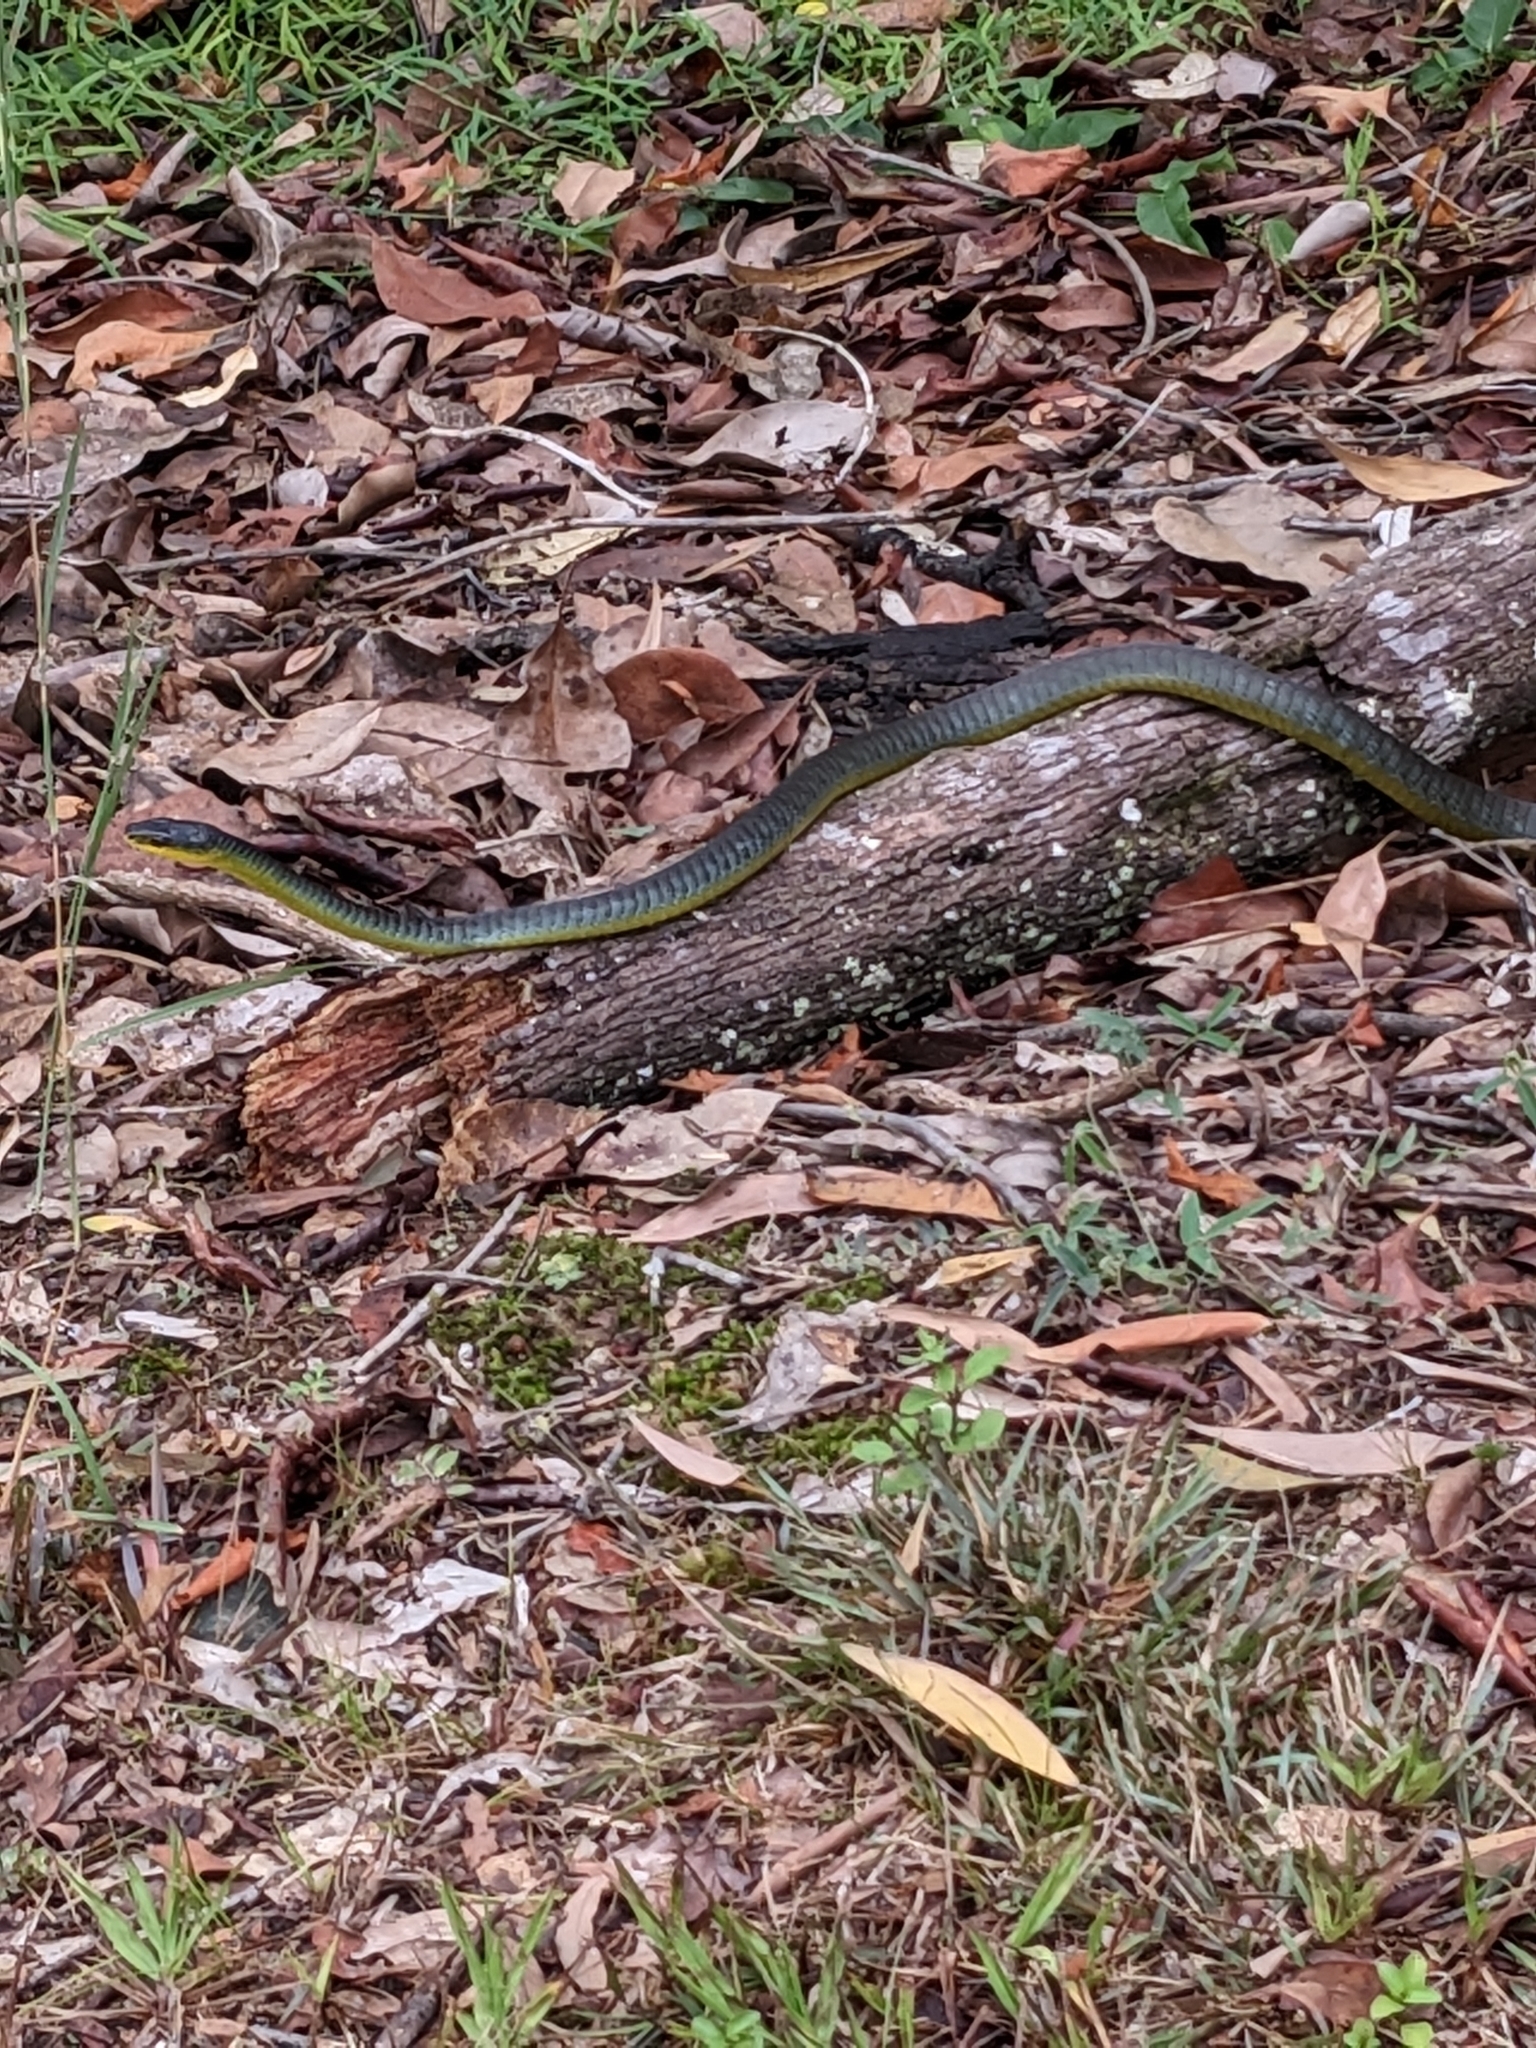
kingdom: Animalia
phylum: Chordata
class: Squamata
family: Colubridae
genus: Dendrelaphis
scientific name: Dendrelaphis punctulatus
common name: Common tree snake
